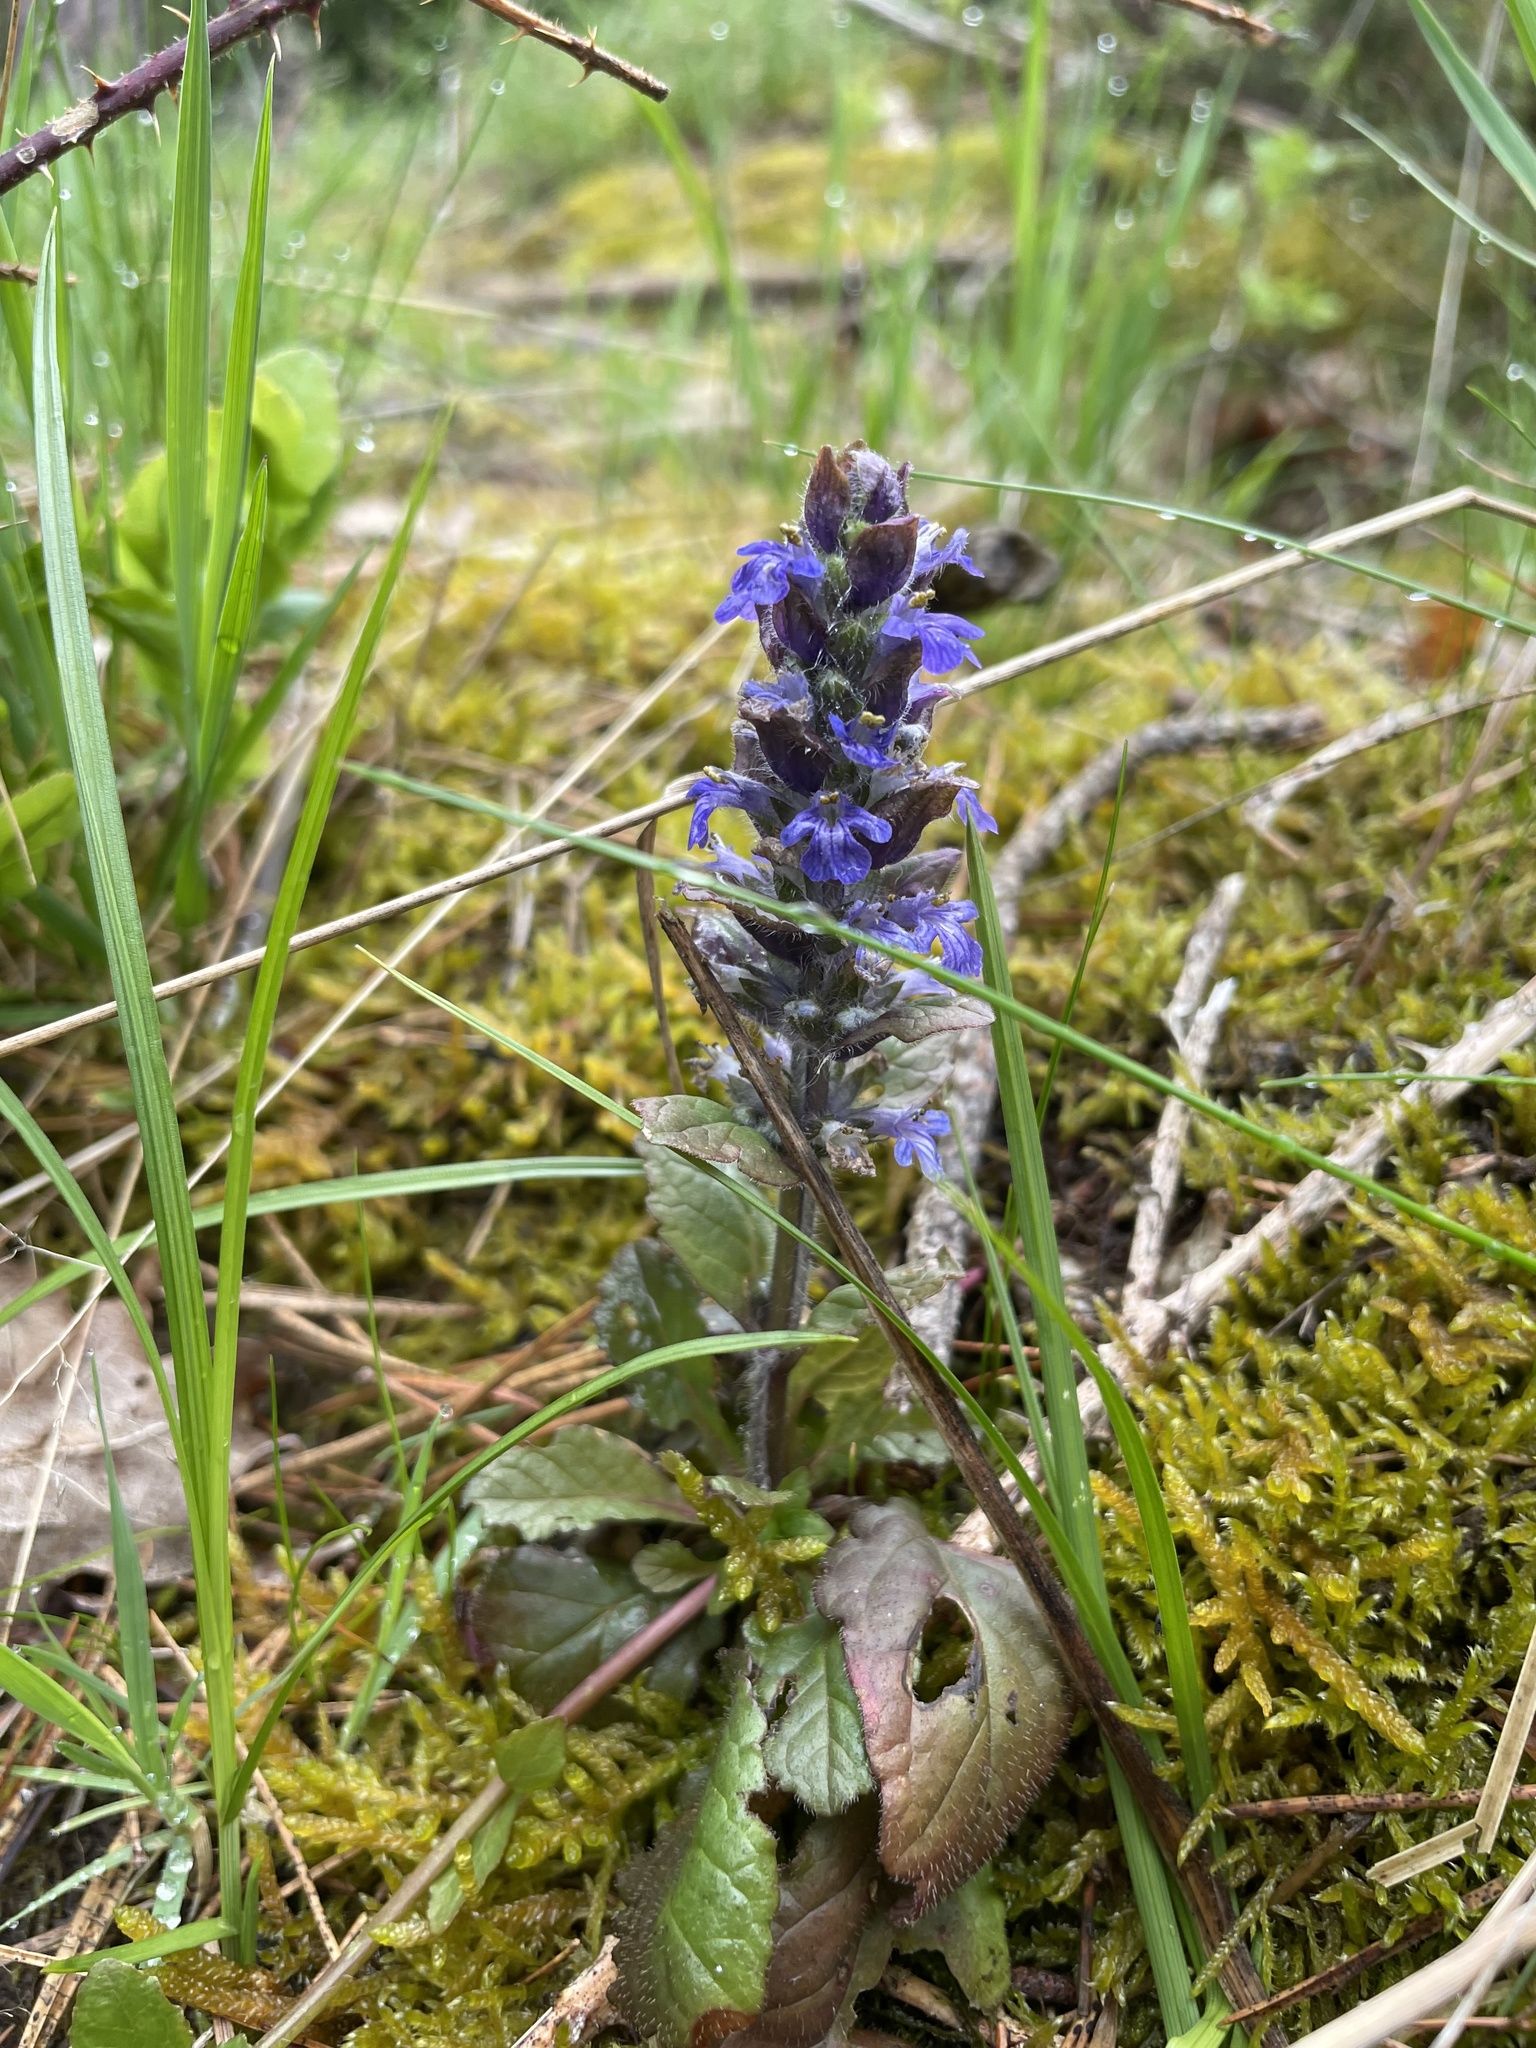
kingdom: Plantae
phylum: Tracheophyta
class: Magnoliopsida
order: Lamiales
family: Lamiaceae
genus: Ajuga
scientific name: Ajuga reptans
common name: Bugle
